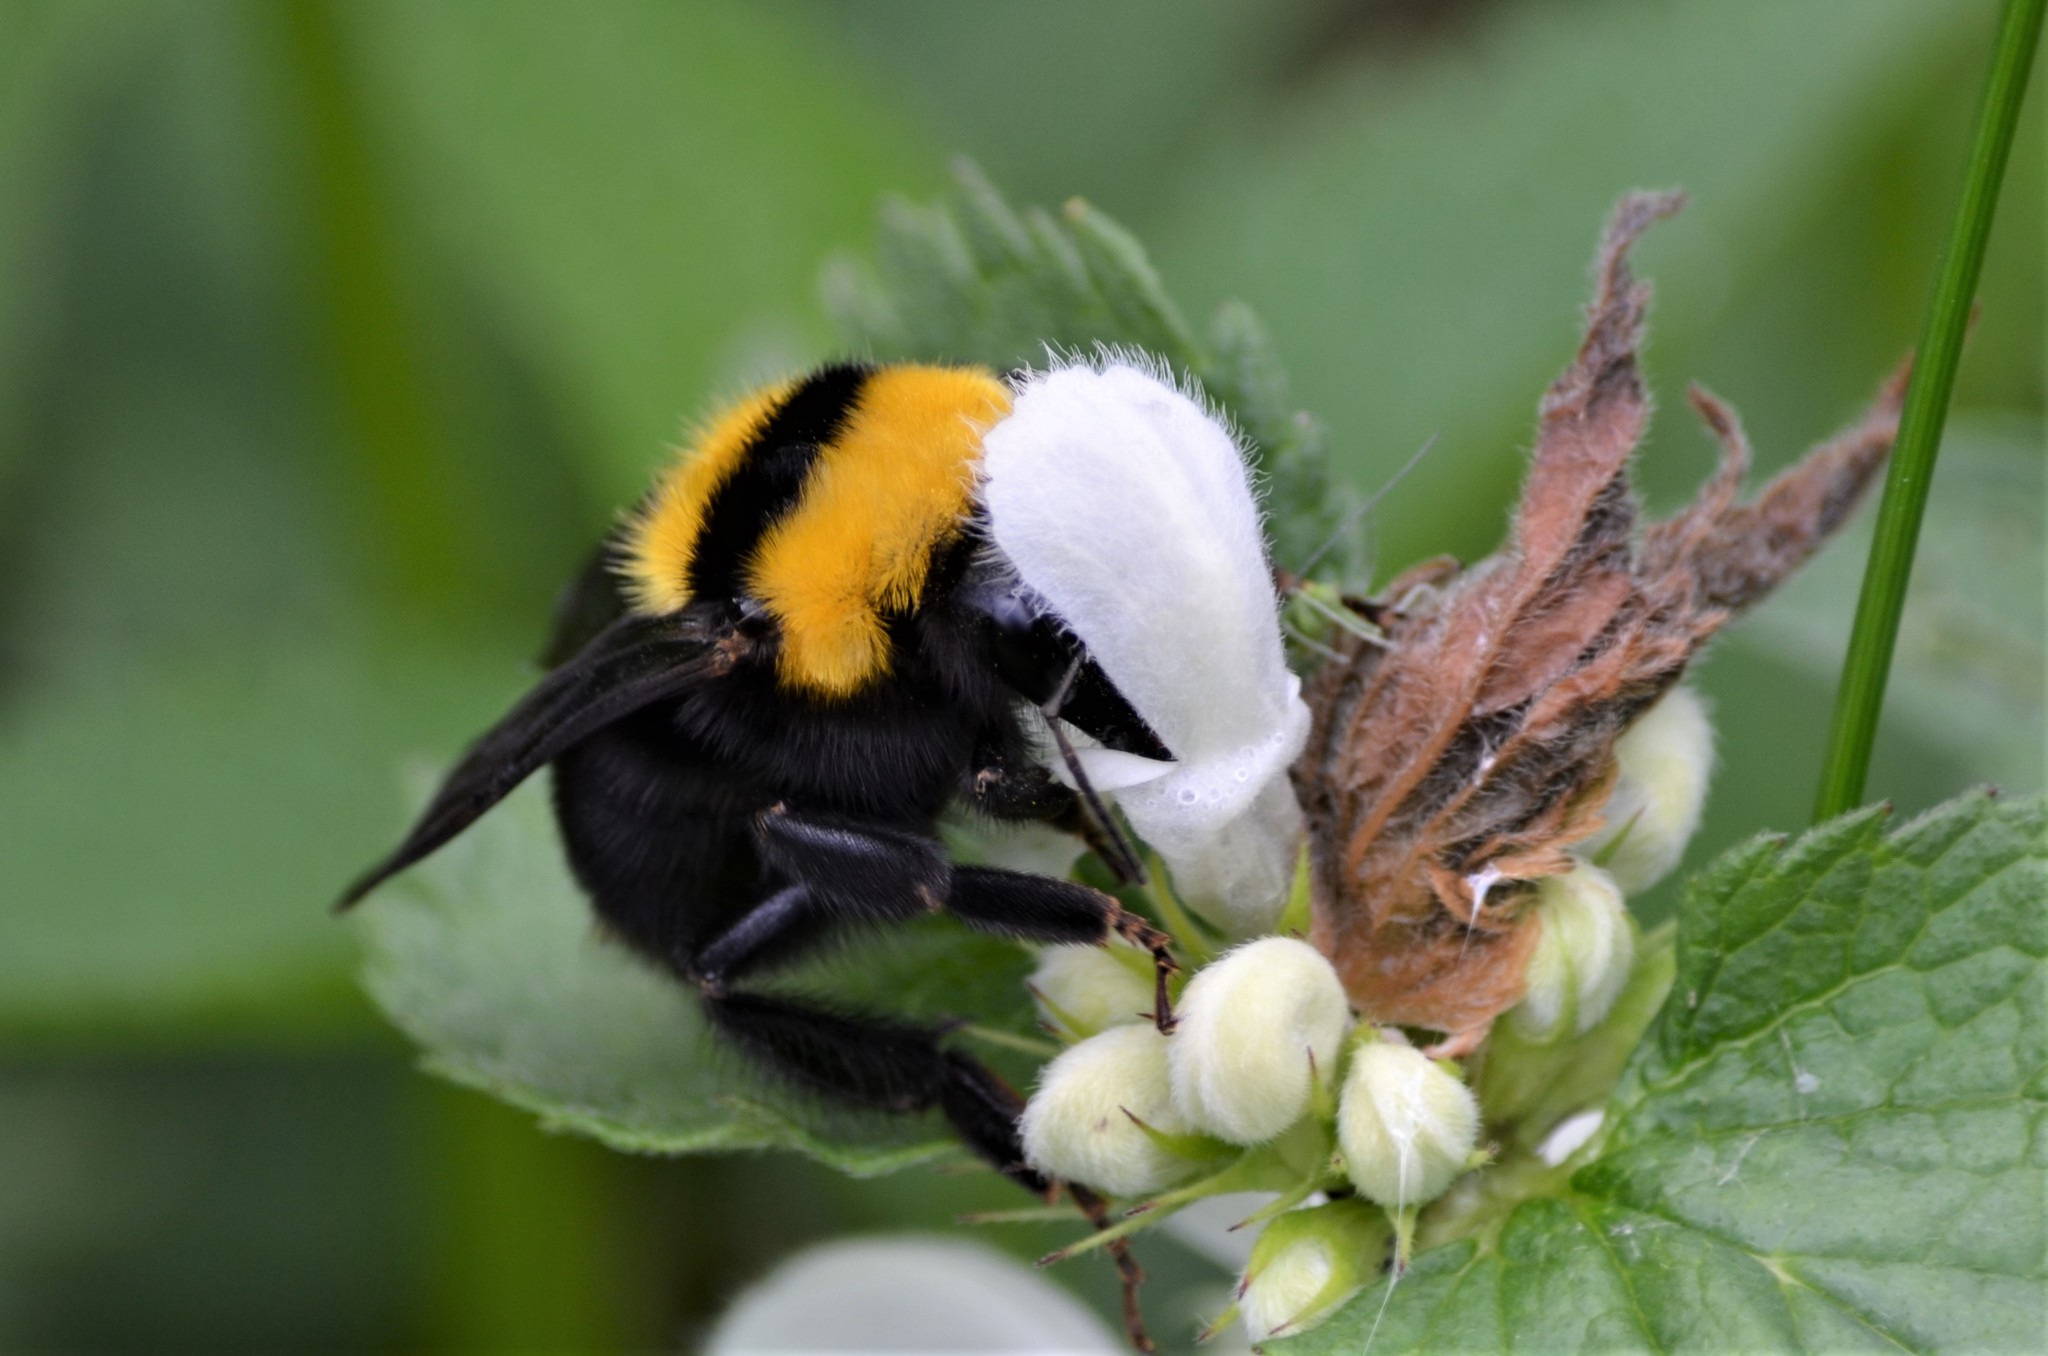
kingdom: Animalia
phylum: Arthropoda
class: Insecta
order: Hymenoptera
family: Apidae
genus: Bombus
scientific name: Bombus argillaceus
